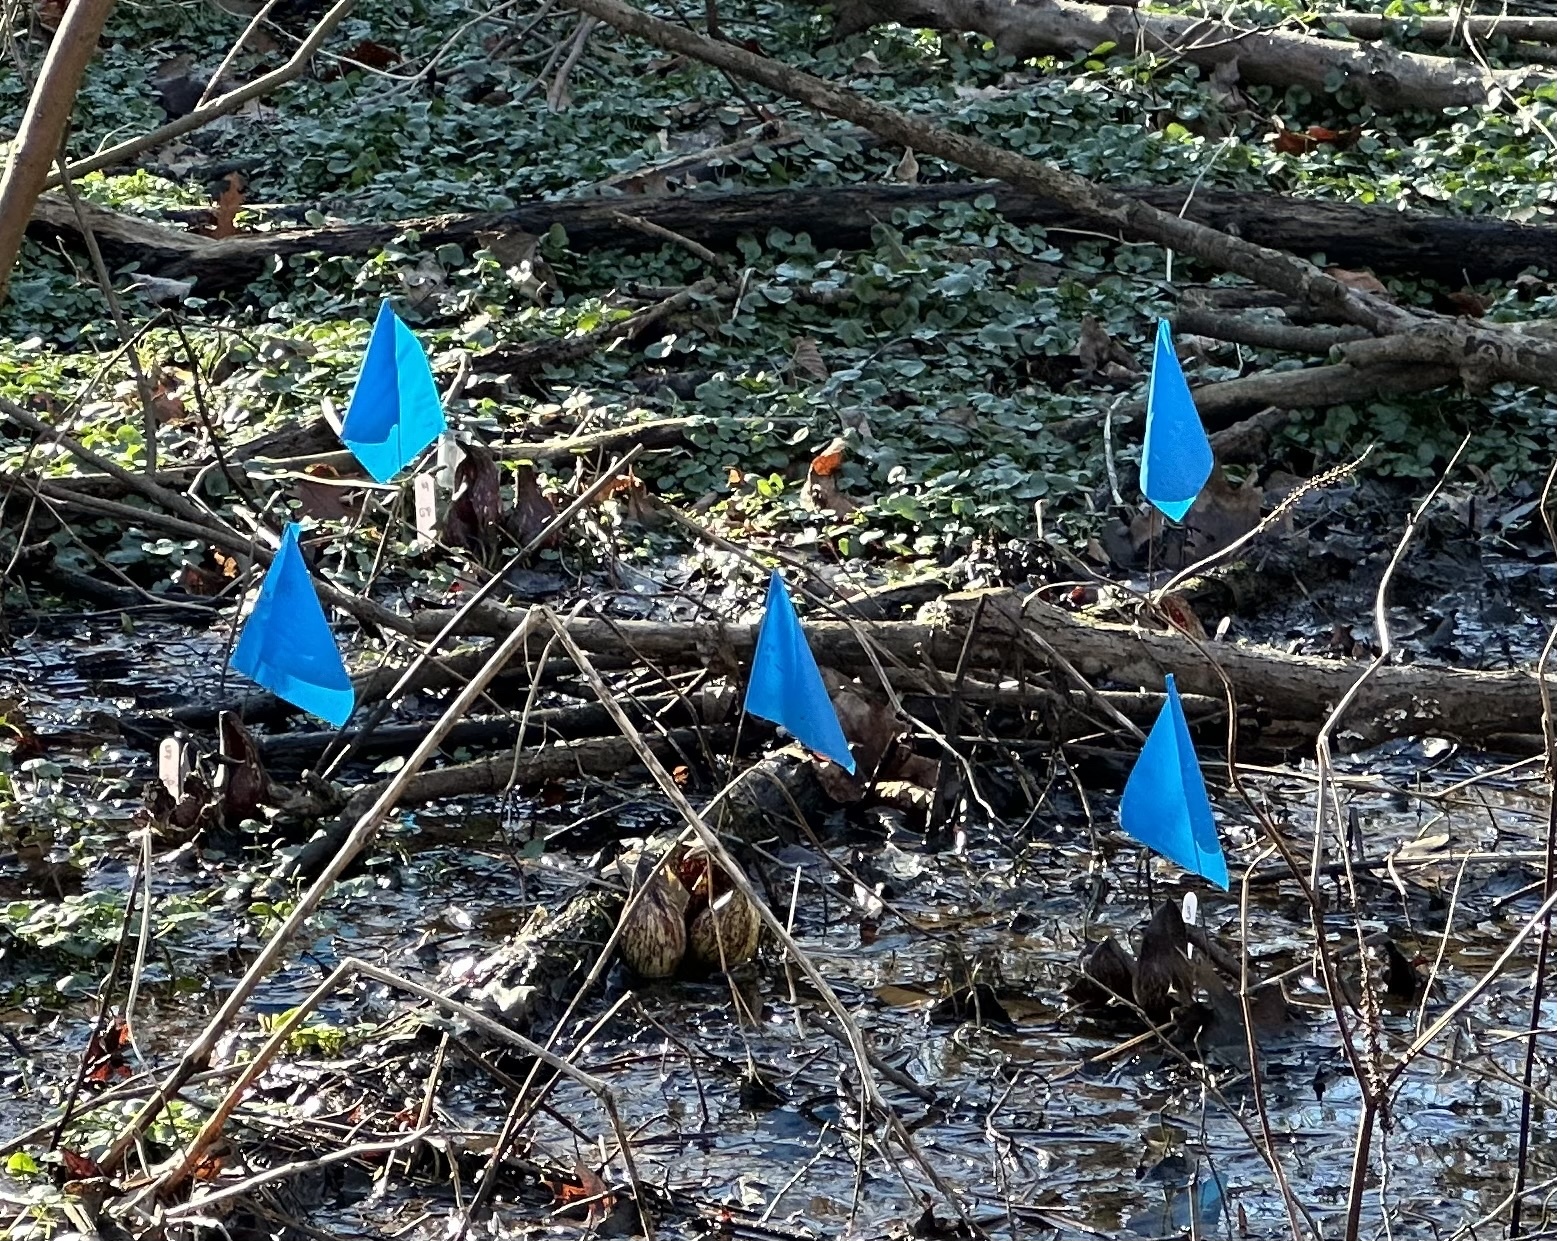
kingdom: Plantae
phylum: Tracheophyta
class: Liliopsida
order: Alismatales
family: Araceae
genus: Symplocarpus
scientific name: Symplocarpus foetidus
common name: Eastern skunk cabbage
